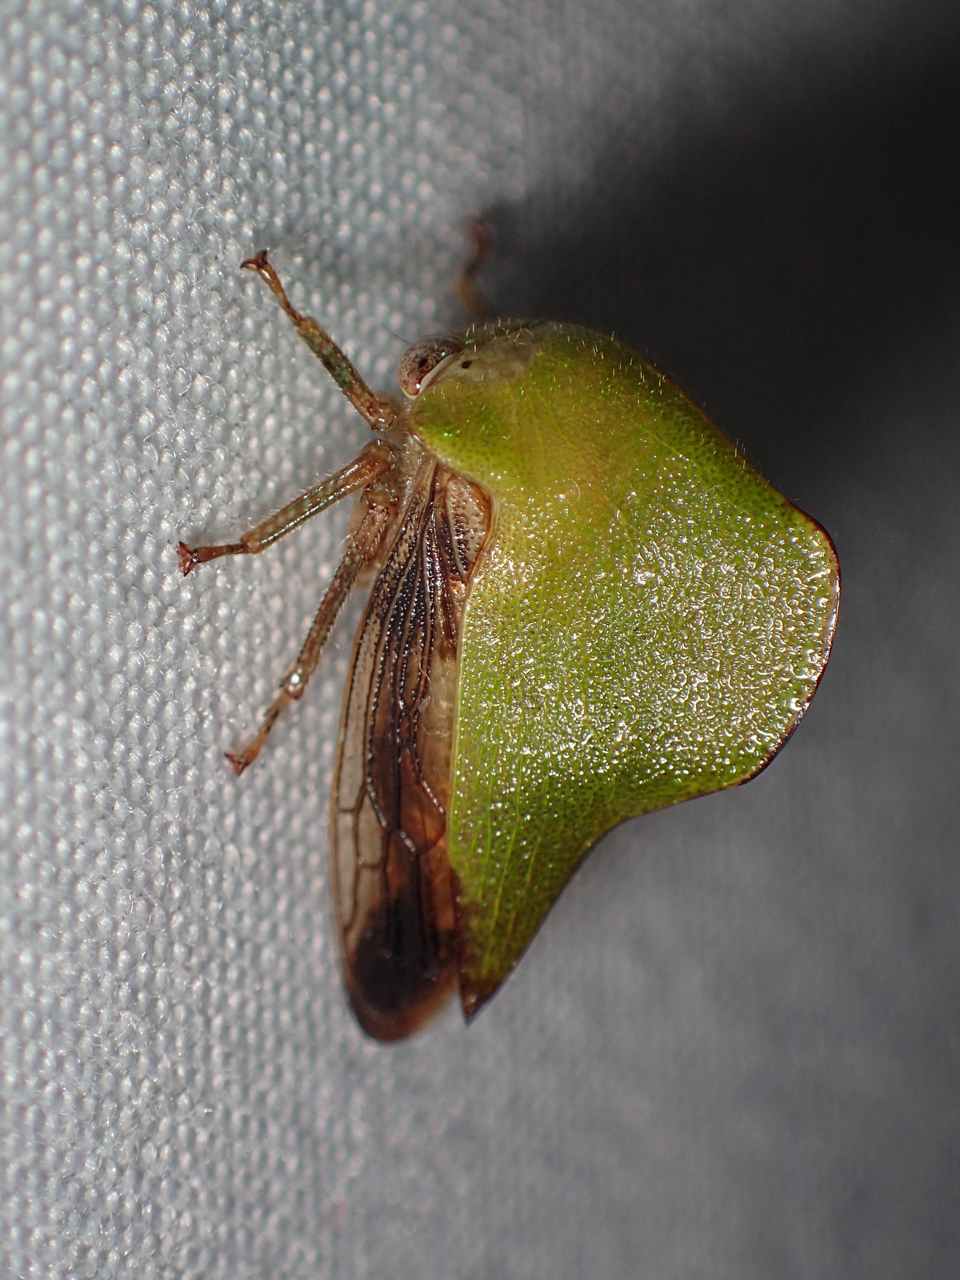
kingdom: Animalia
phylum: Arthropoda
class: Insecta
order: Hemiptera
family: Membracidae
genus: Helonica
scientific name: Helonica excelsa
